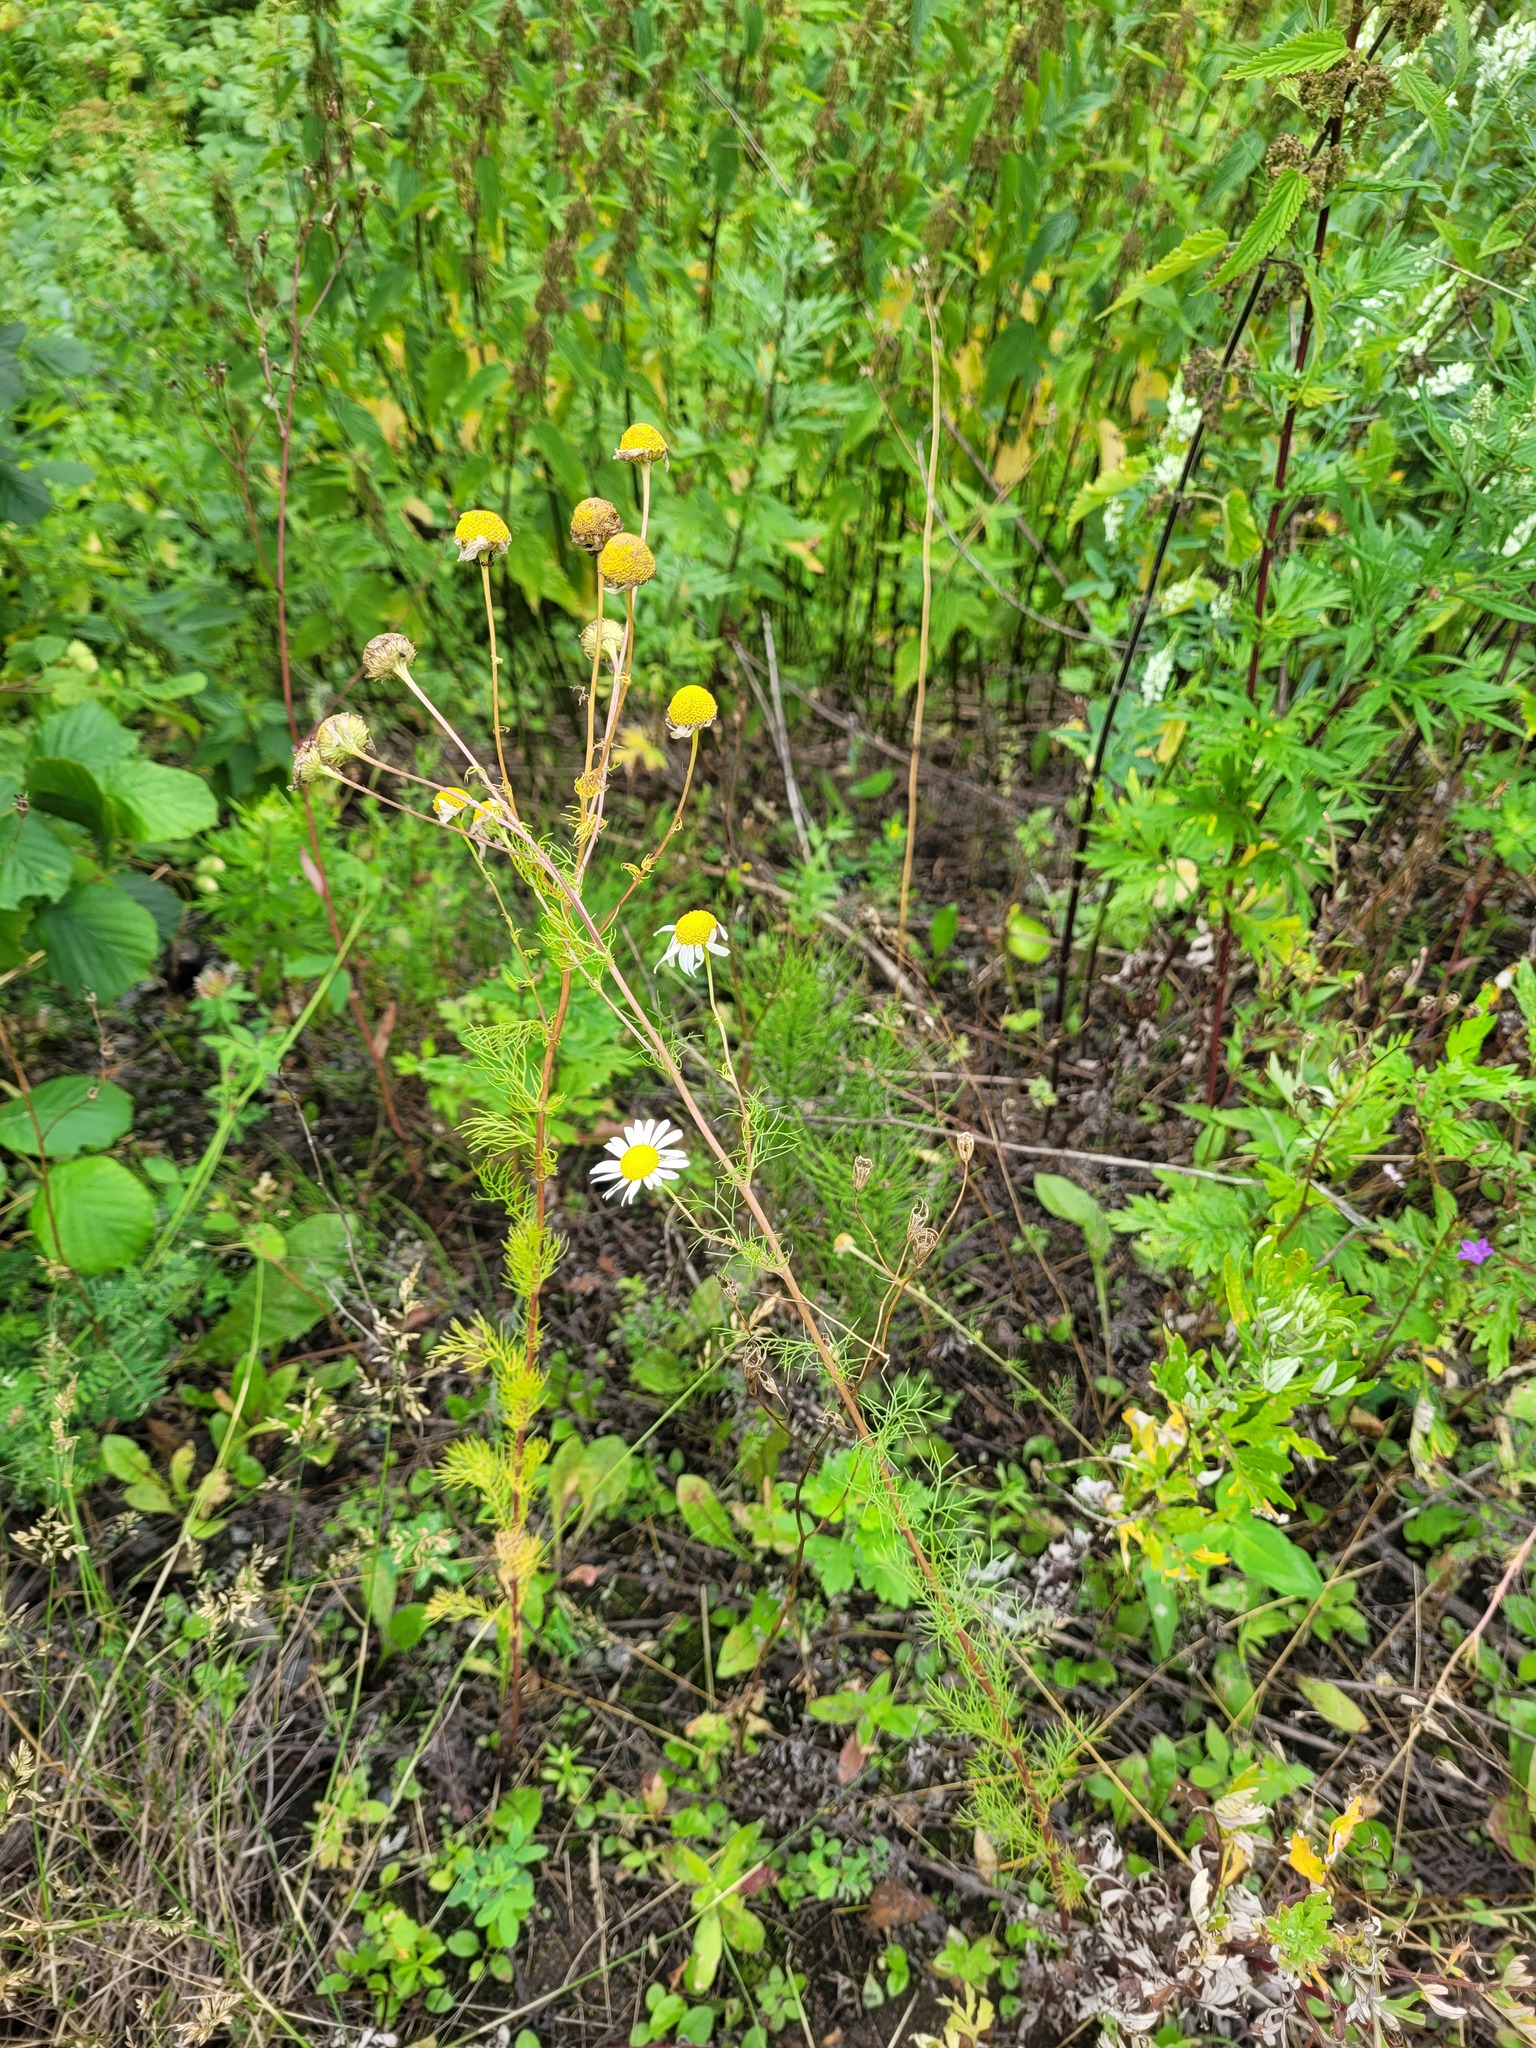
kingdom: Plantae
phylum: Tracheophyta
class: Magnoliopsida
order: Fabales
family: Fabaceae
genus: Trifolium
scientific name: Trifolium pratense
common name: Red clover
